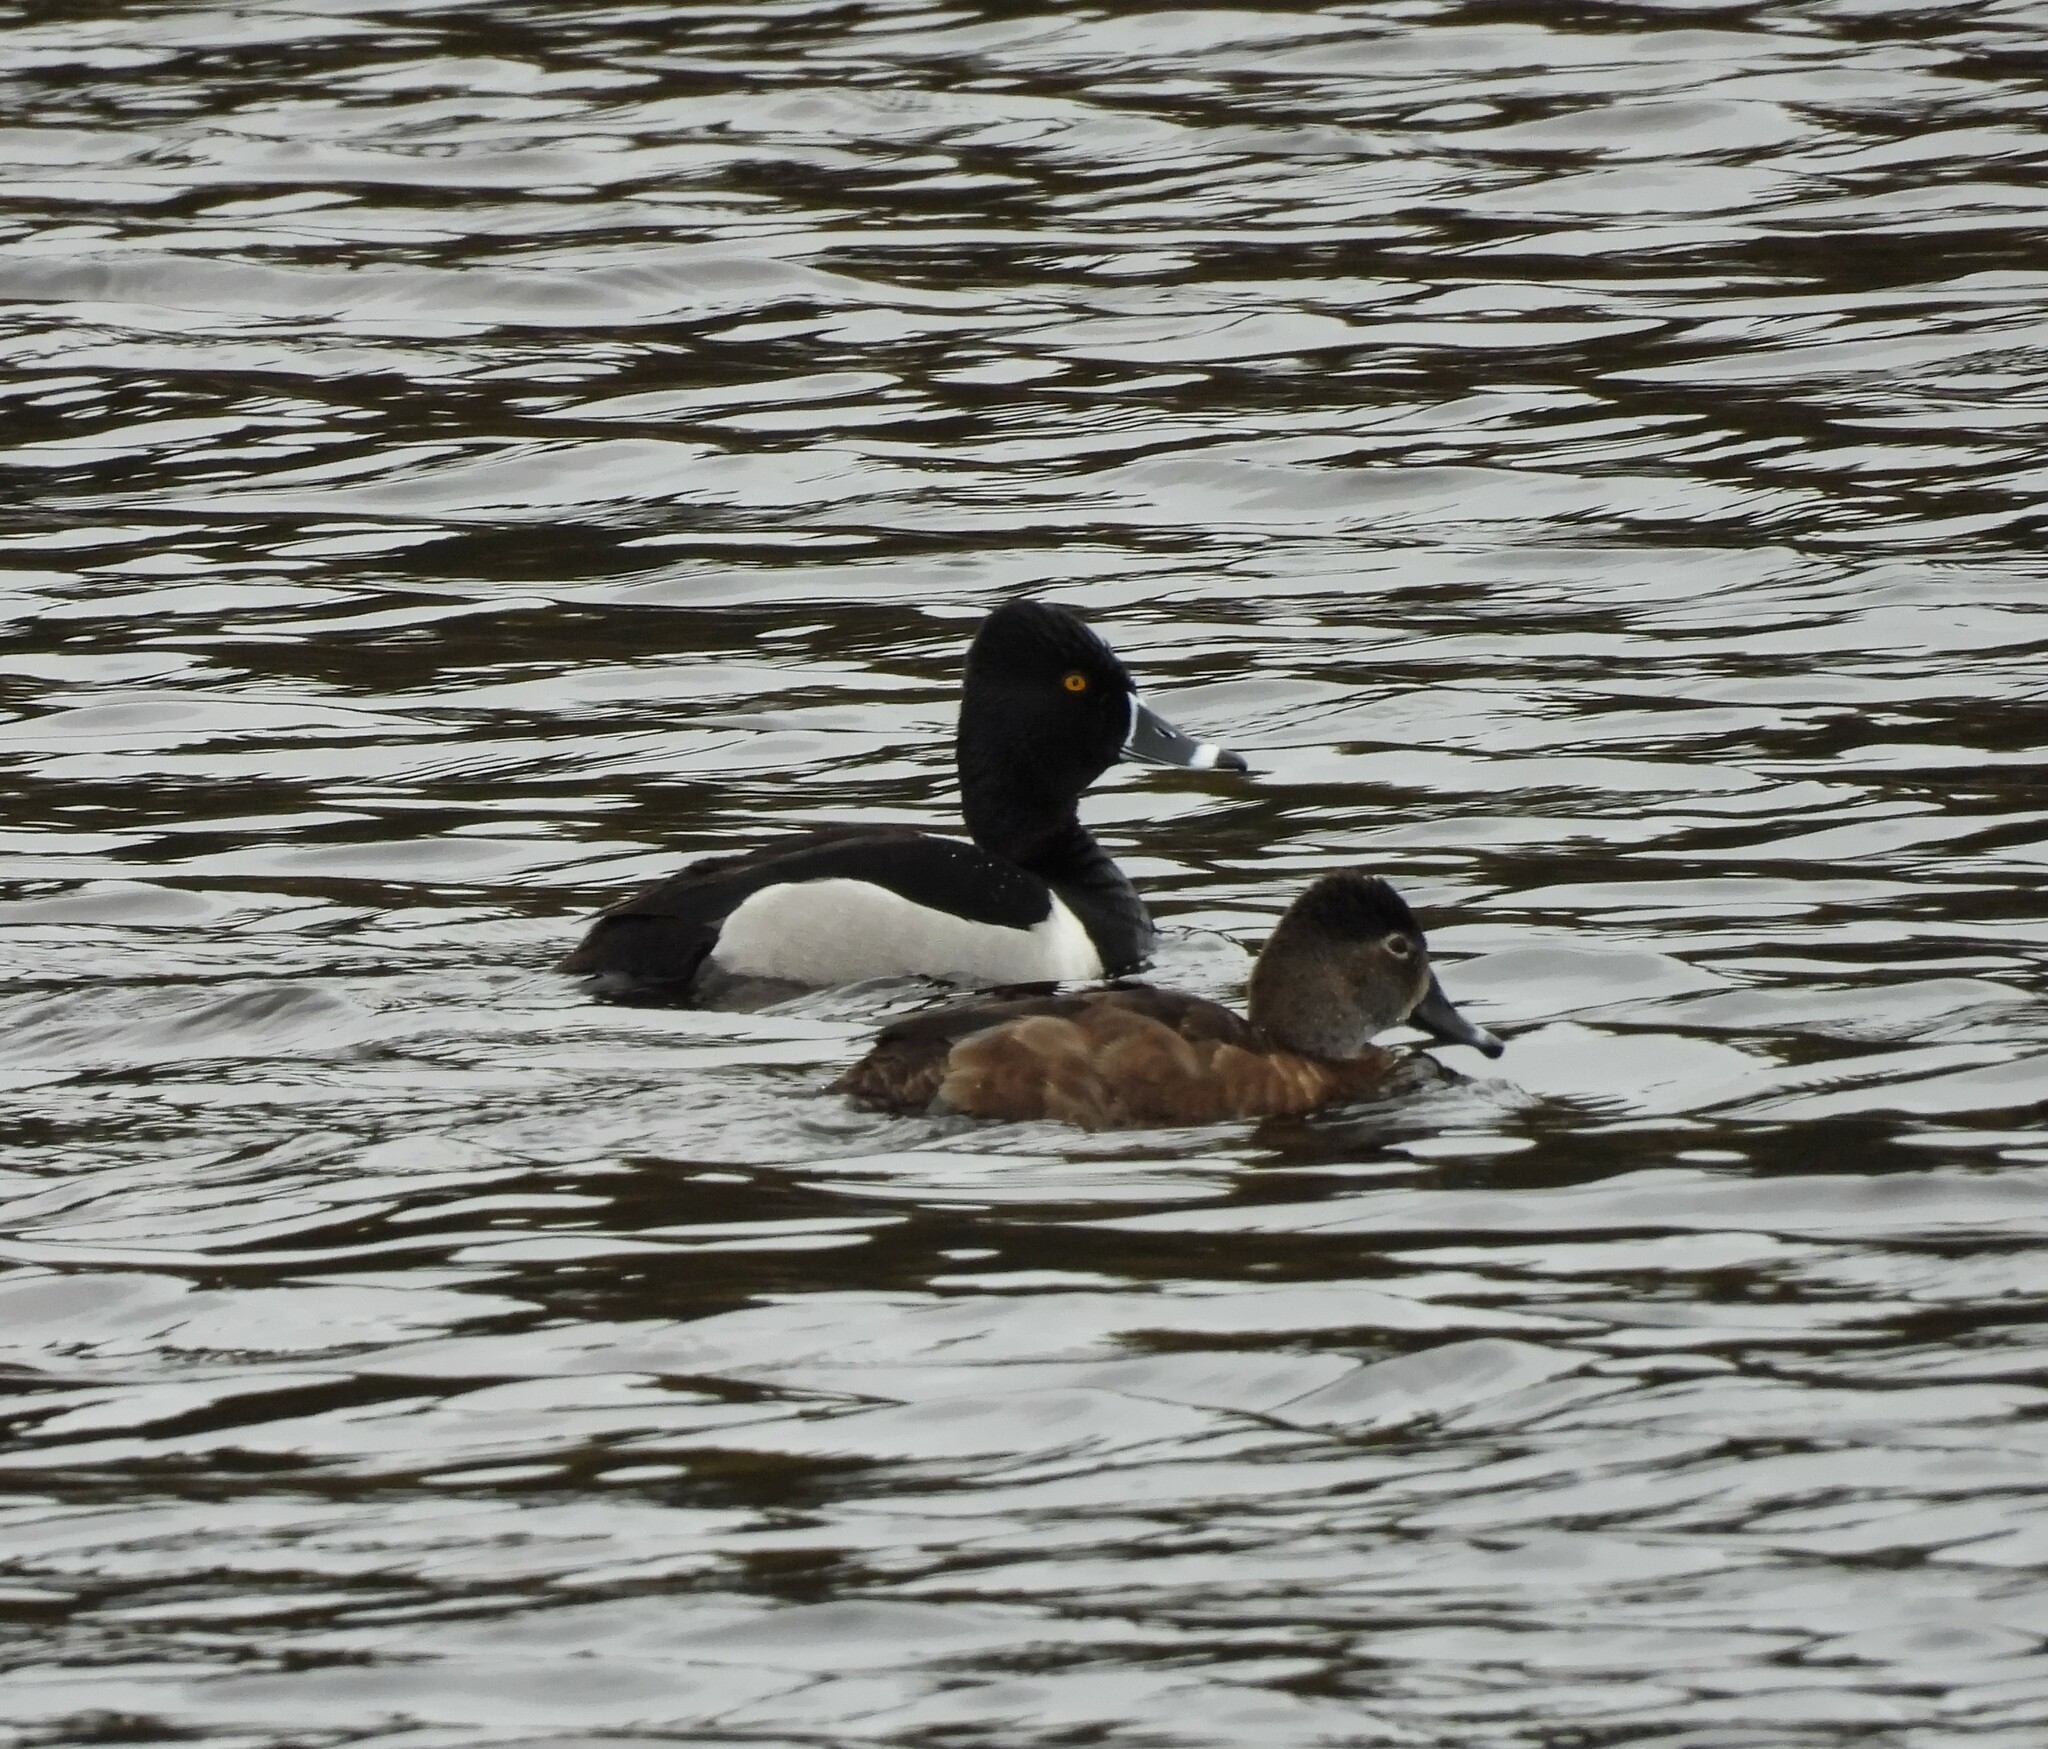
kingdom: Animalia
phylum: Chordata
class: Aves
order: Anseriformes
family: Anatidae
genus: Aythya
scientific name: Aythya collaris
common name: Ring-necked duck
